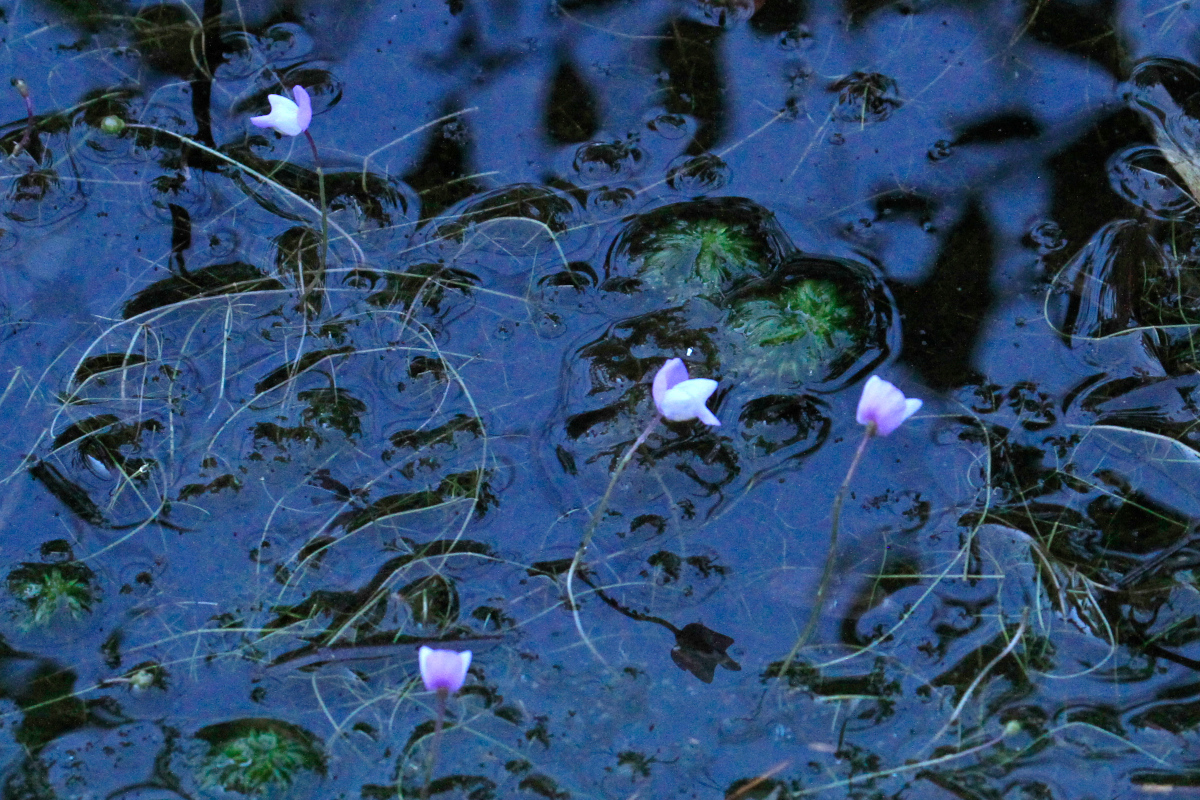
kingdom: Plantae
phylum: Tracheophyta
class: Magnoliopsida
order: Lamiales
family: Lentibulariaceae
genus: Utricularia
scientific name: Utricularia purpurea
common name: Eastern purple bladderwort
